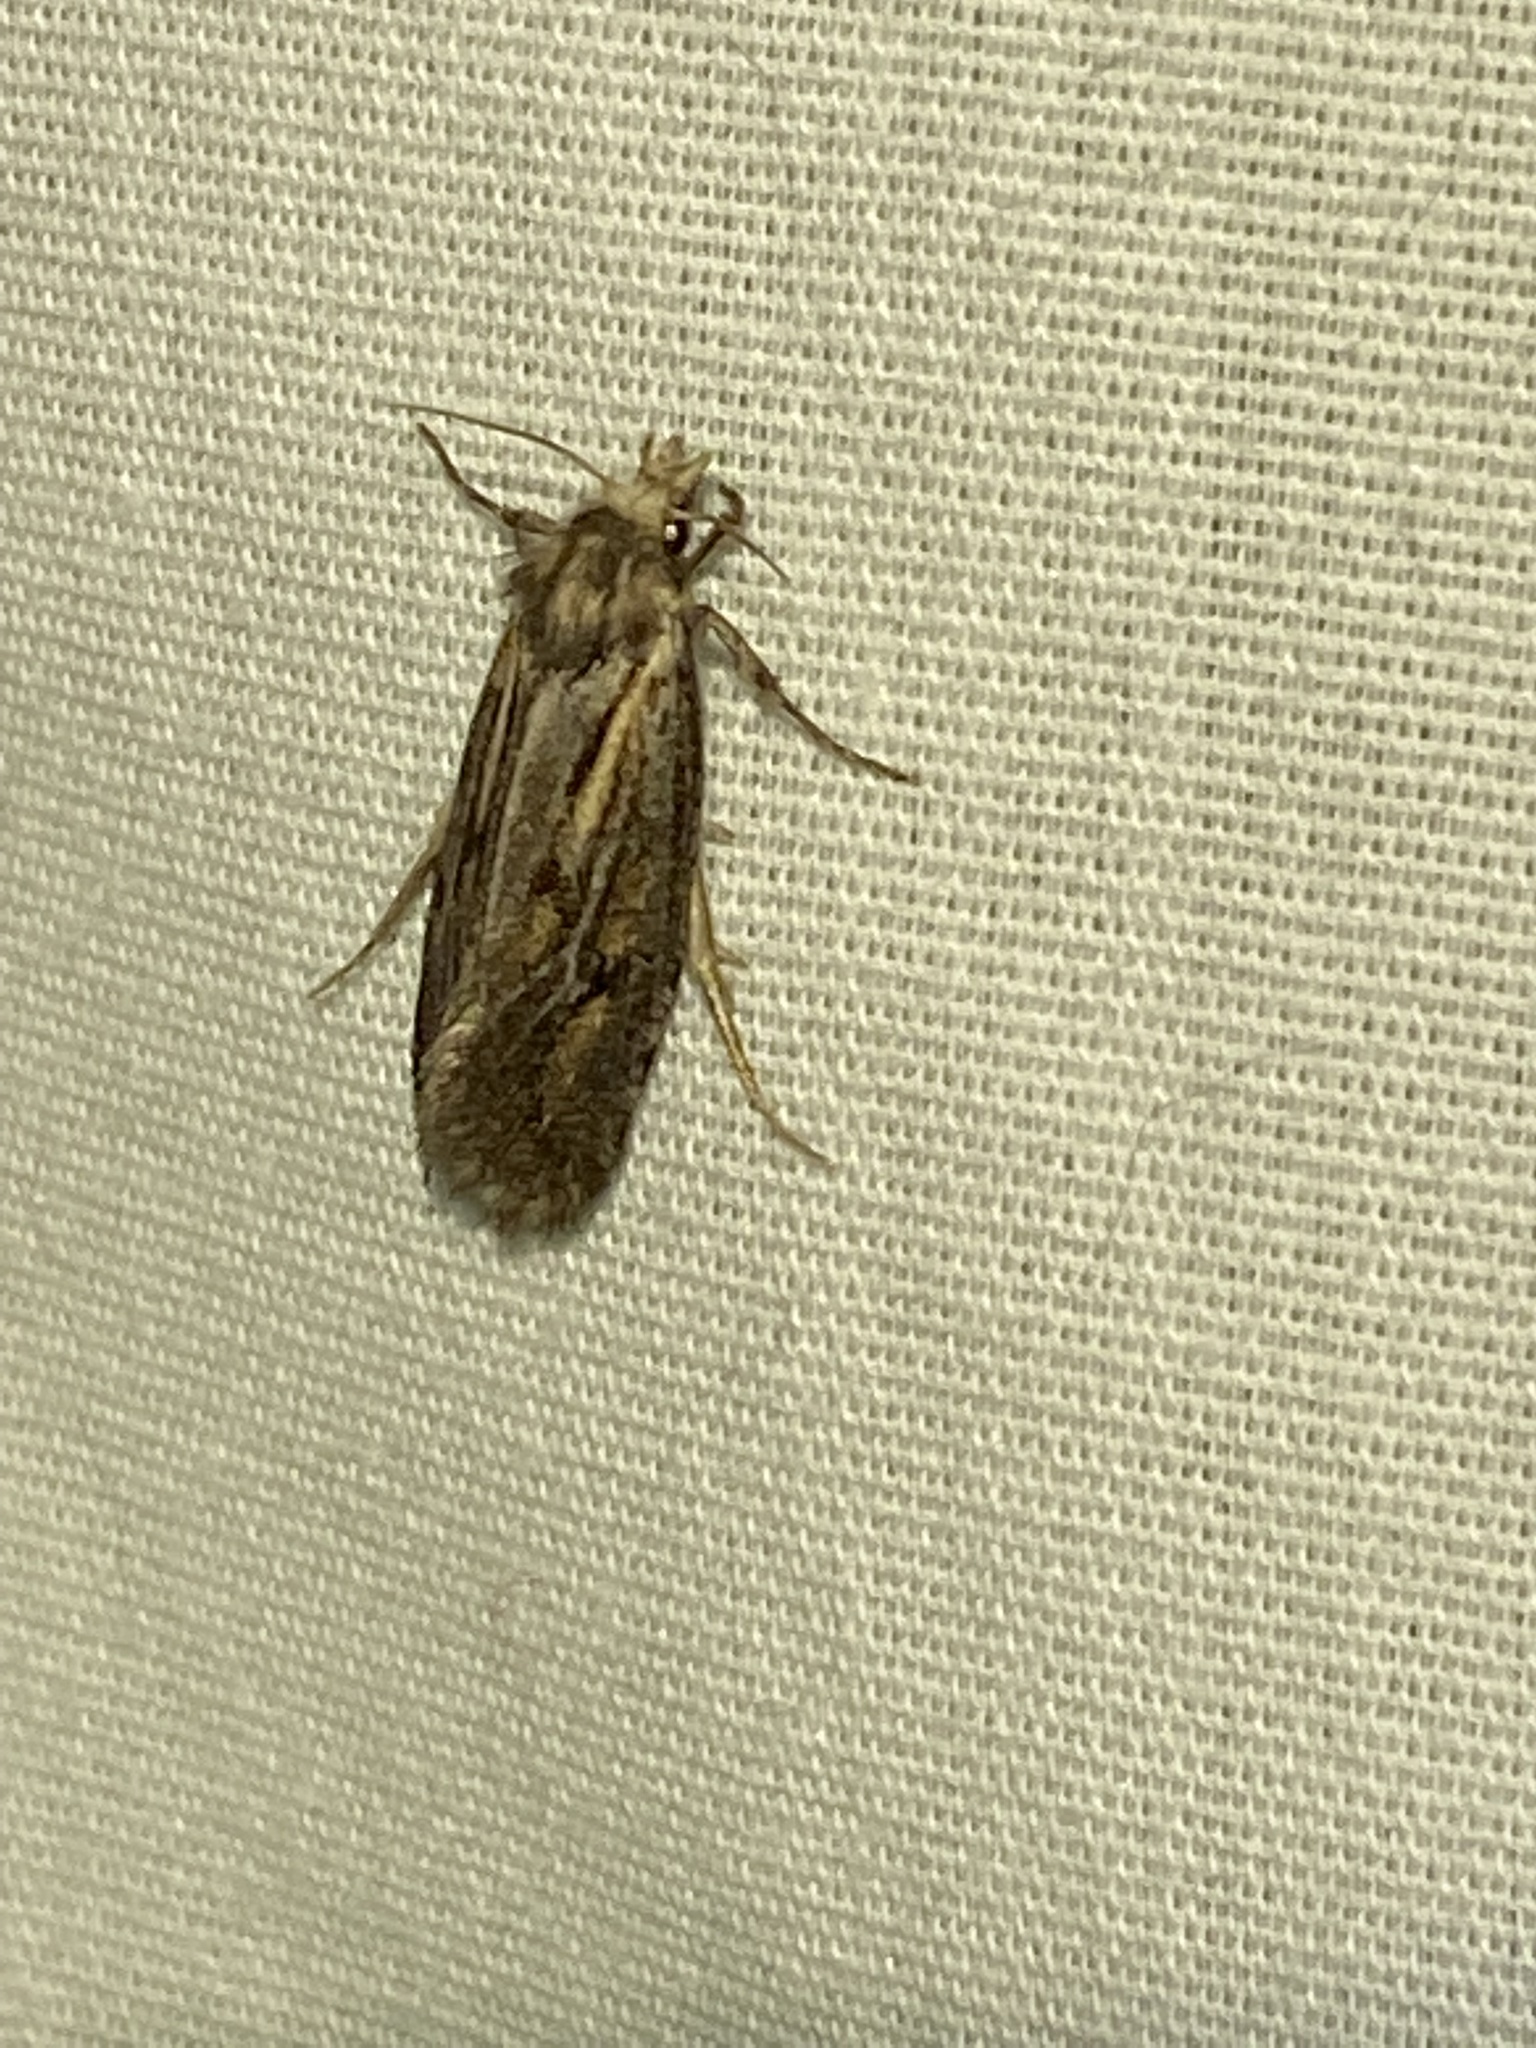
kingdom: Animalia
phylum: Arthropoda
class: Insecta
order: Lepidoptera
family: Tineidae
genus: Acrolophus
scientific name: Acrolophus popeanella
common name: Clemens' grass tubeworm moth
